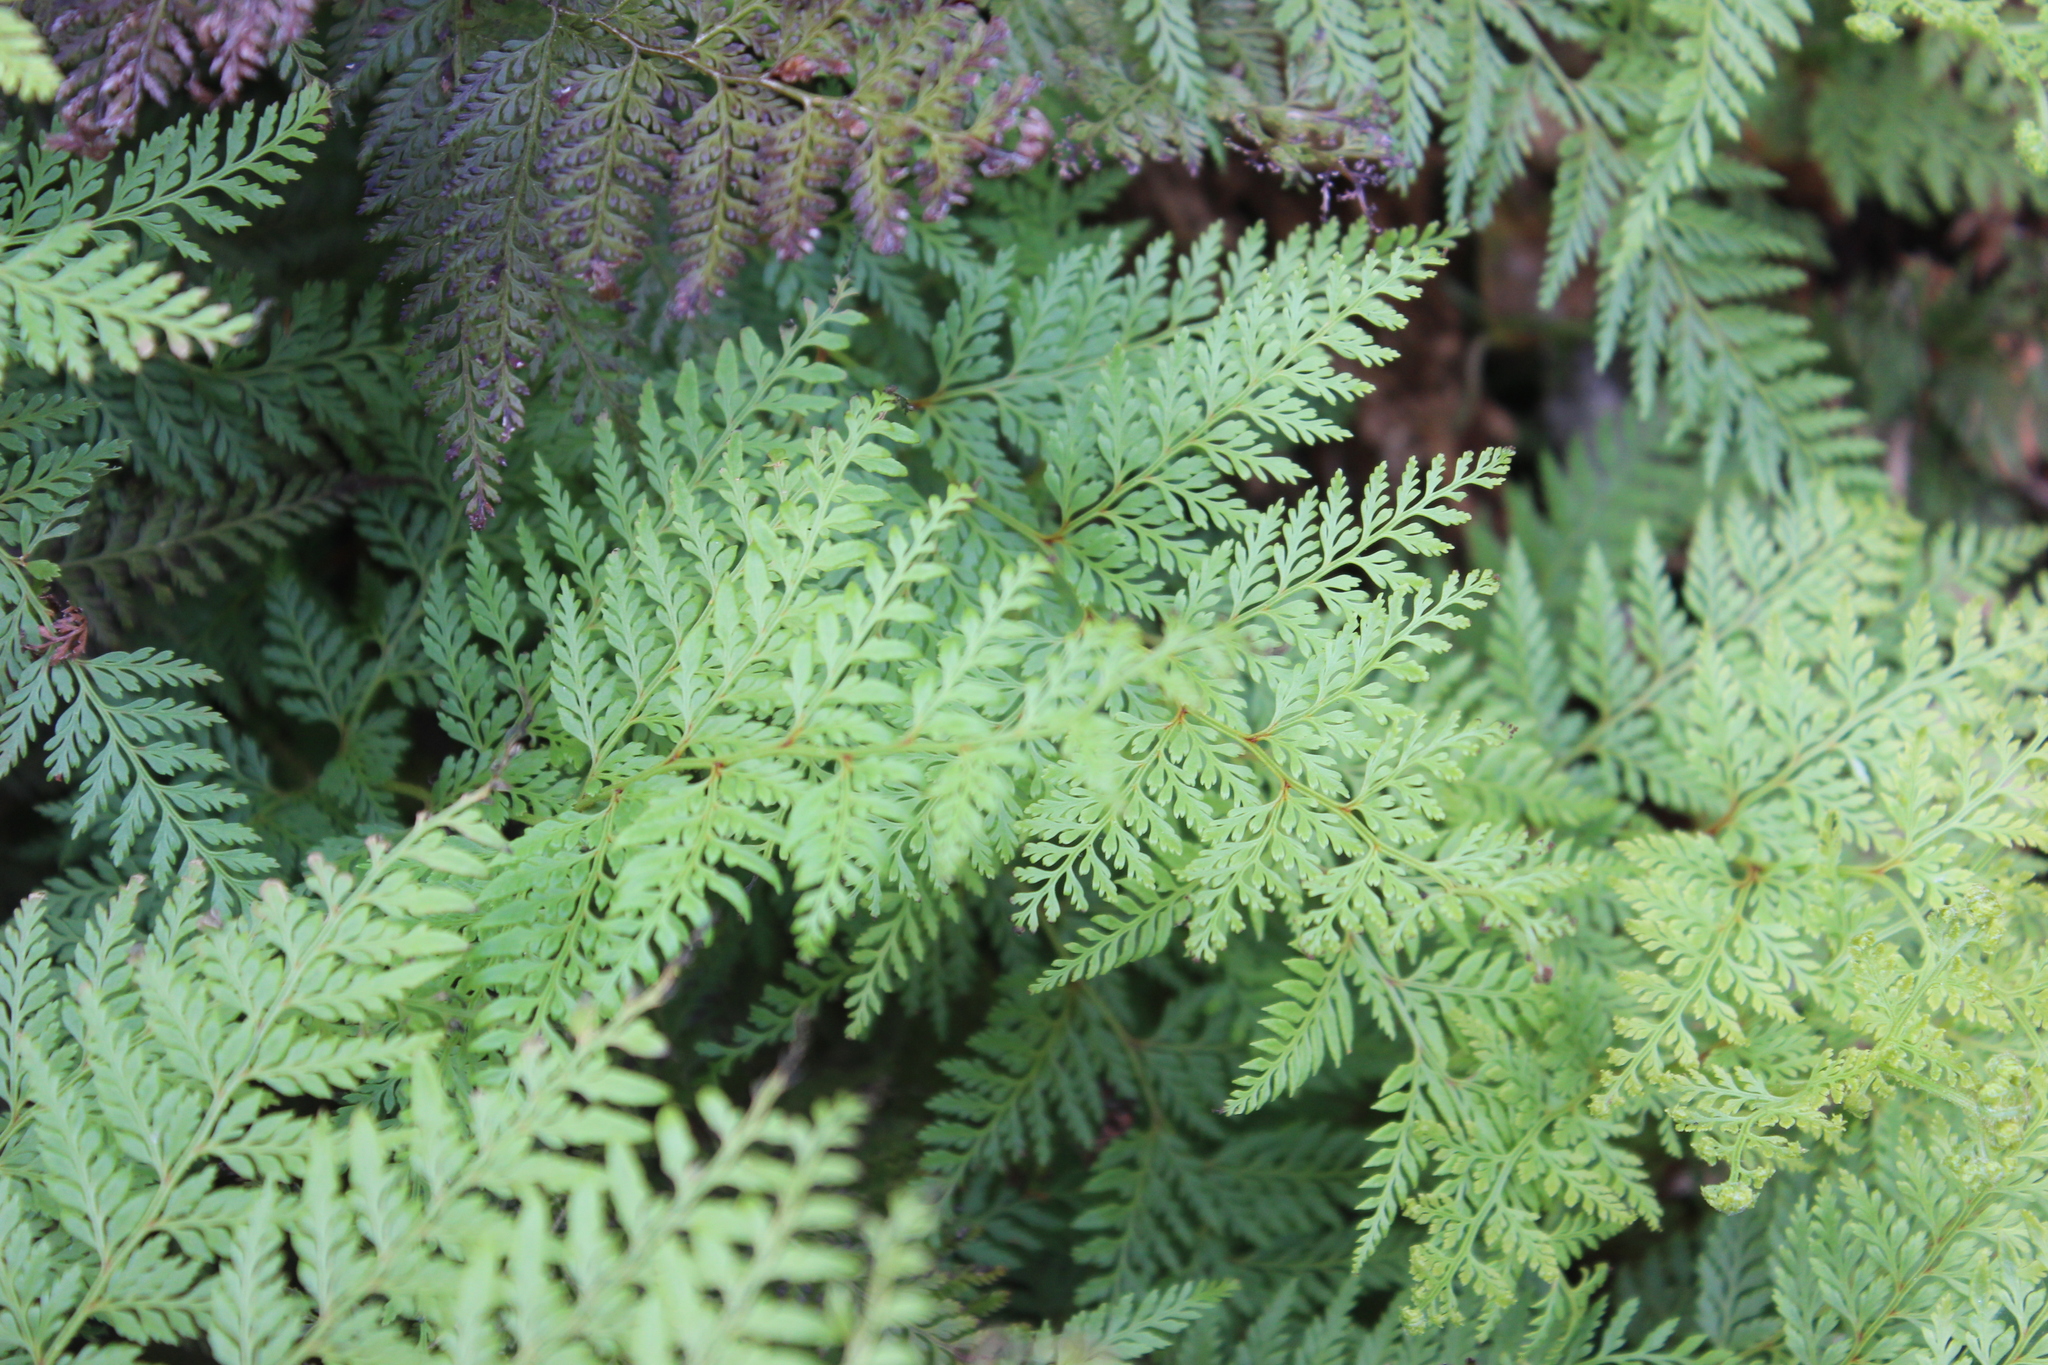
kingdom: Plantae
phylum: Tracheophyta
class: Polypodiopsida
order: Polypodiales
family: Dennstaedtiaceae
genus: Paesia
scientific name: Paesia scaberula
